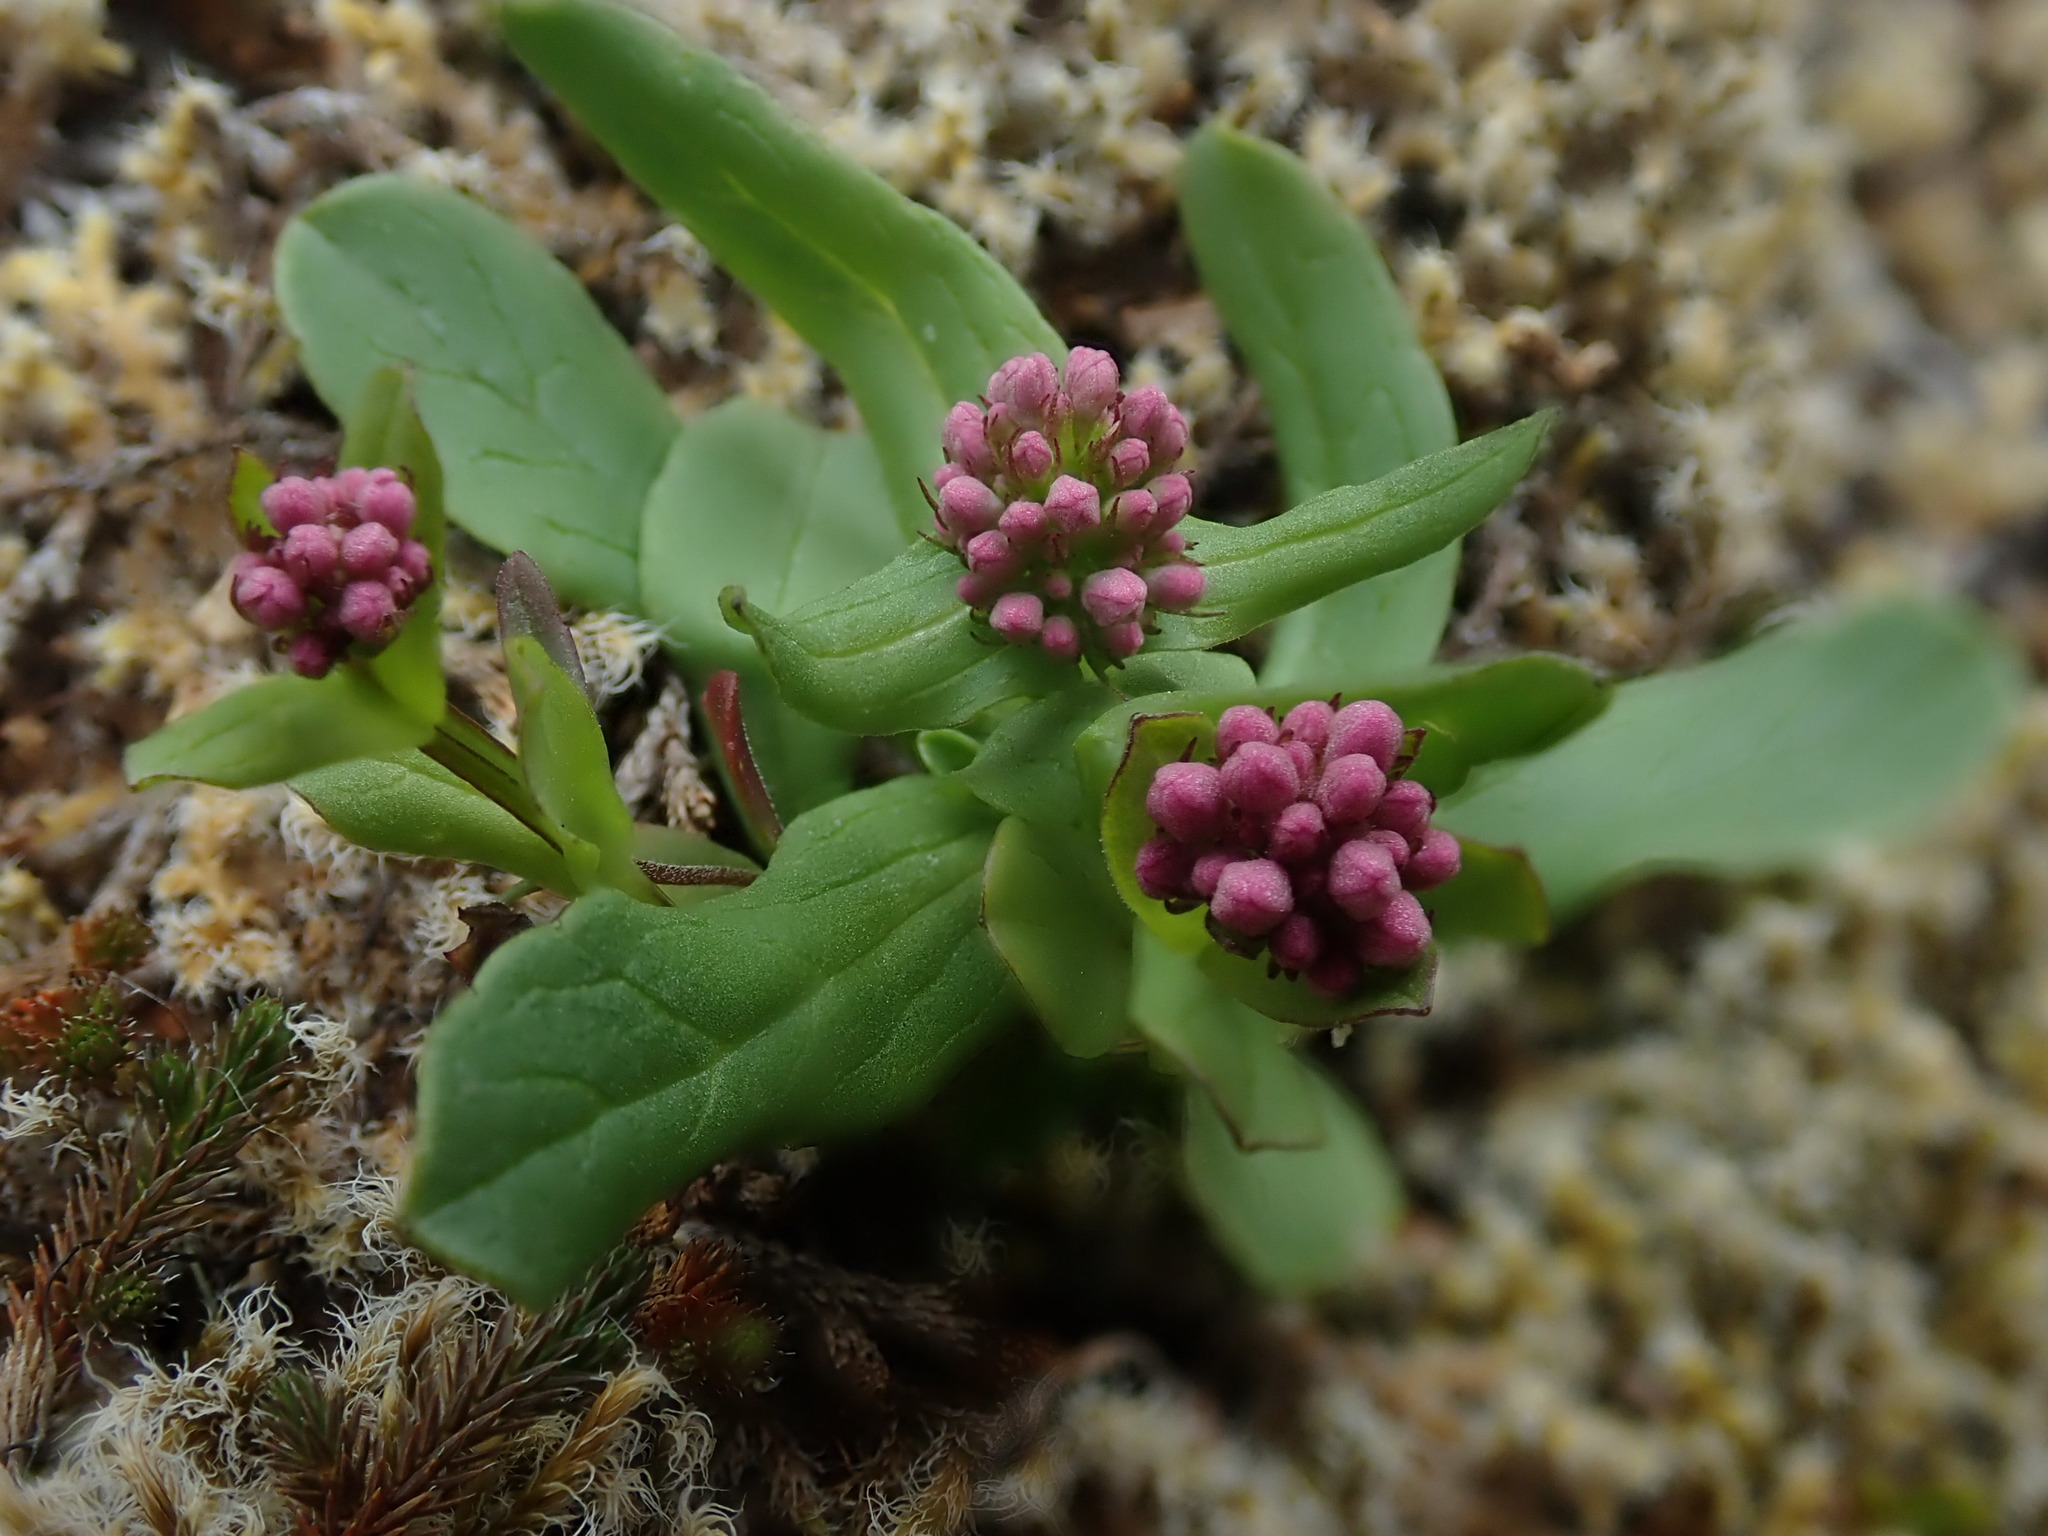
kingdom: Plantae
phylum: Tracheophyta
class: Magnoliopsida
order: Dipsacales
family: Caprifoliaceae
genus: Plectritis
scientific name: Plectritis congesta
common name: Pink plectritis
